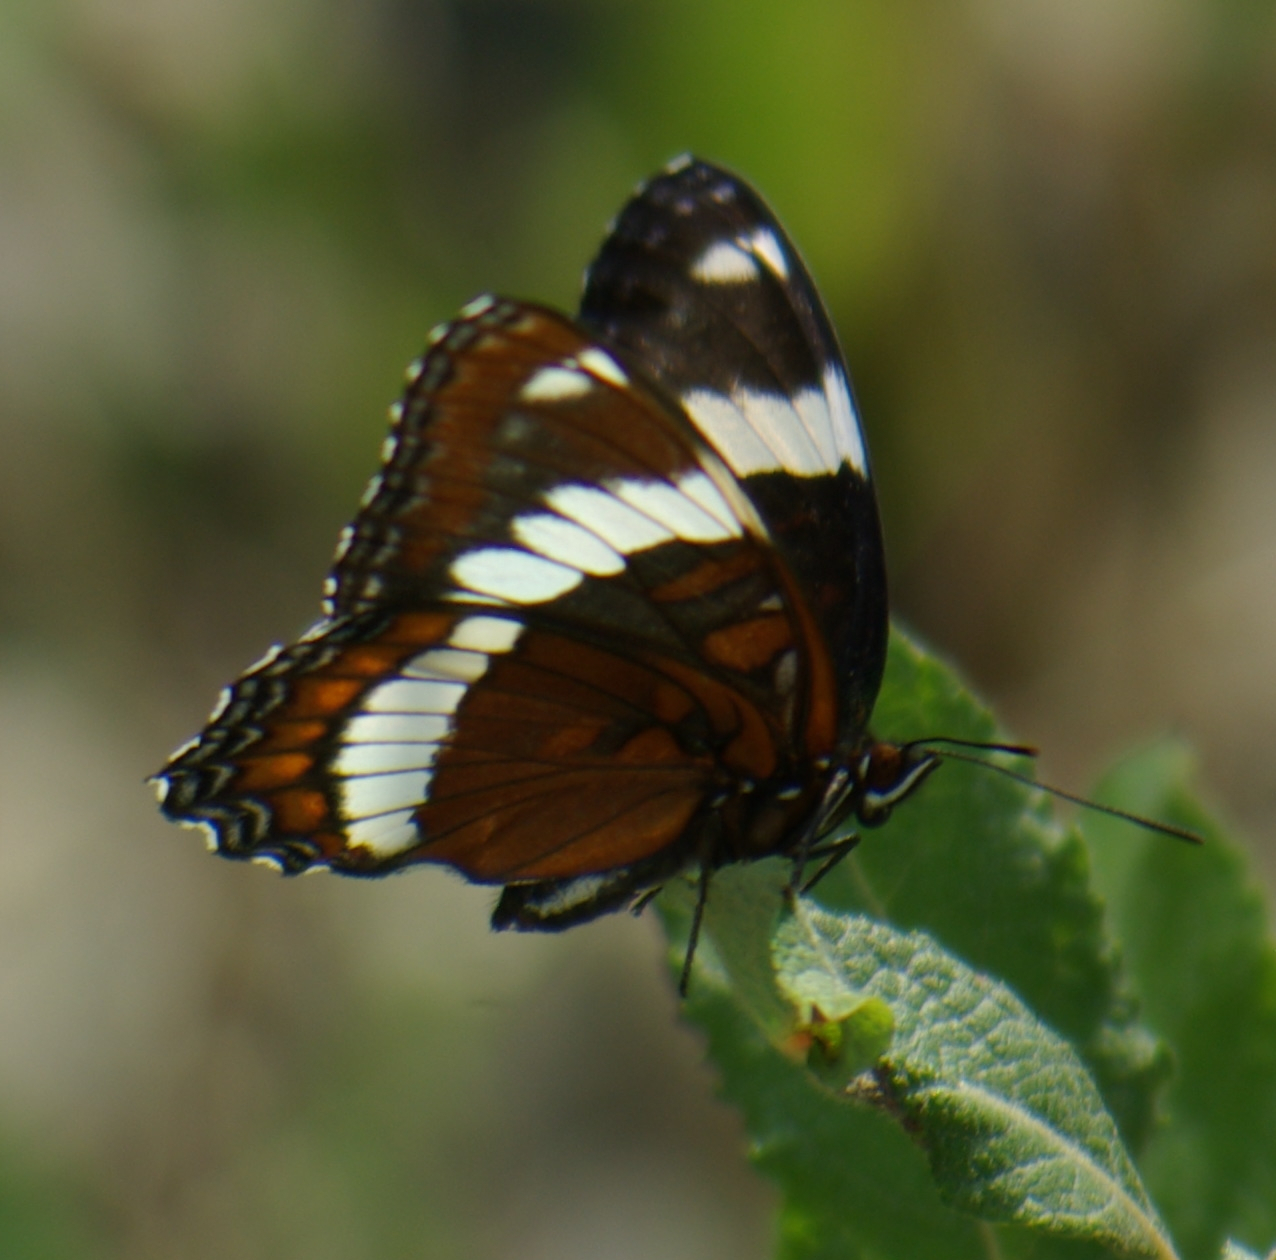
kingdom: Animalia
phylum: Arthropoda
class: Insecta
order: Lepidoptera
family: Nymphalidae
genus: Limenitis
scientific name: Limenitis arthemis
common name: Red-spotted admiral
